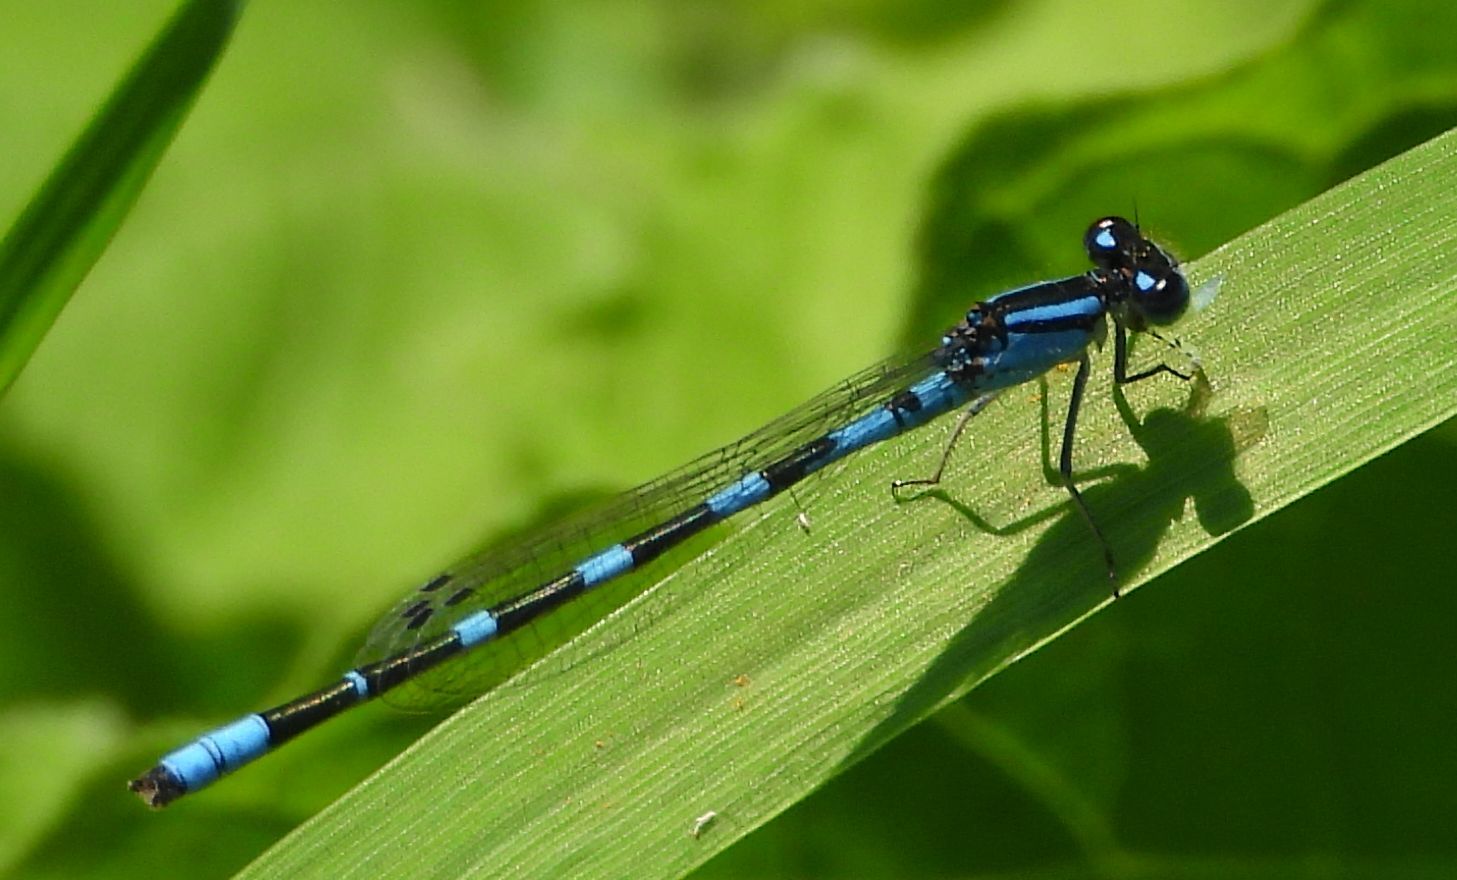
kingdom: Animalia
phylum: Arthropoda
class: Insecta
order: Odonata
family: Coenagrionidae
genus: Enallagma
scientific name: Enallagma carunculatum
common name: Tule bluet
